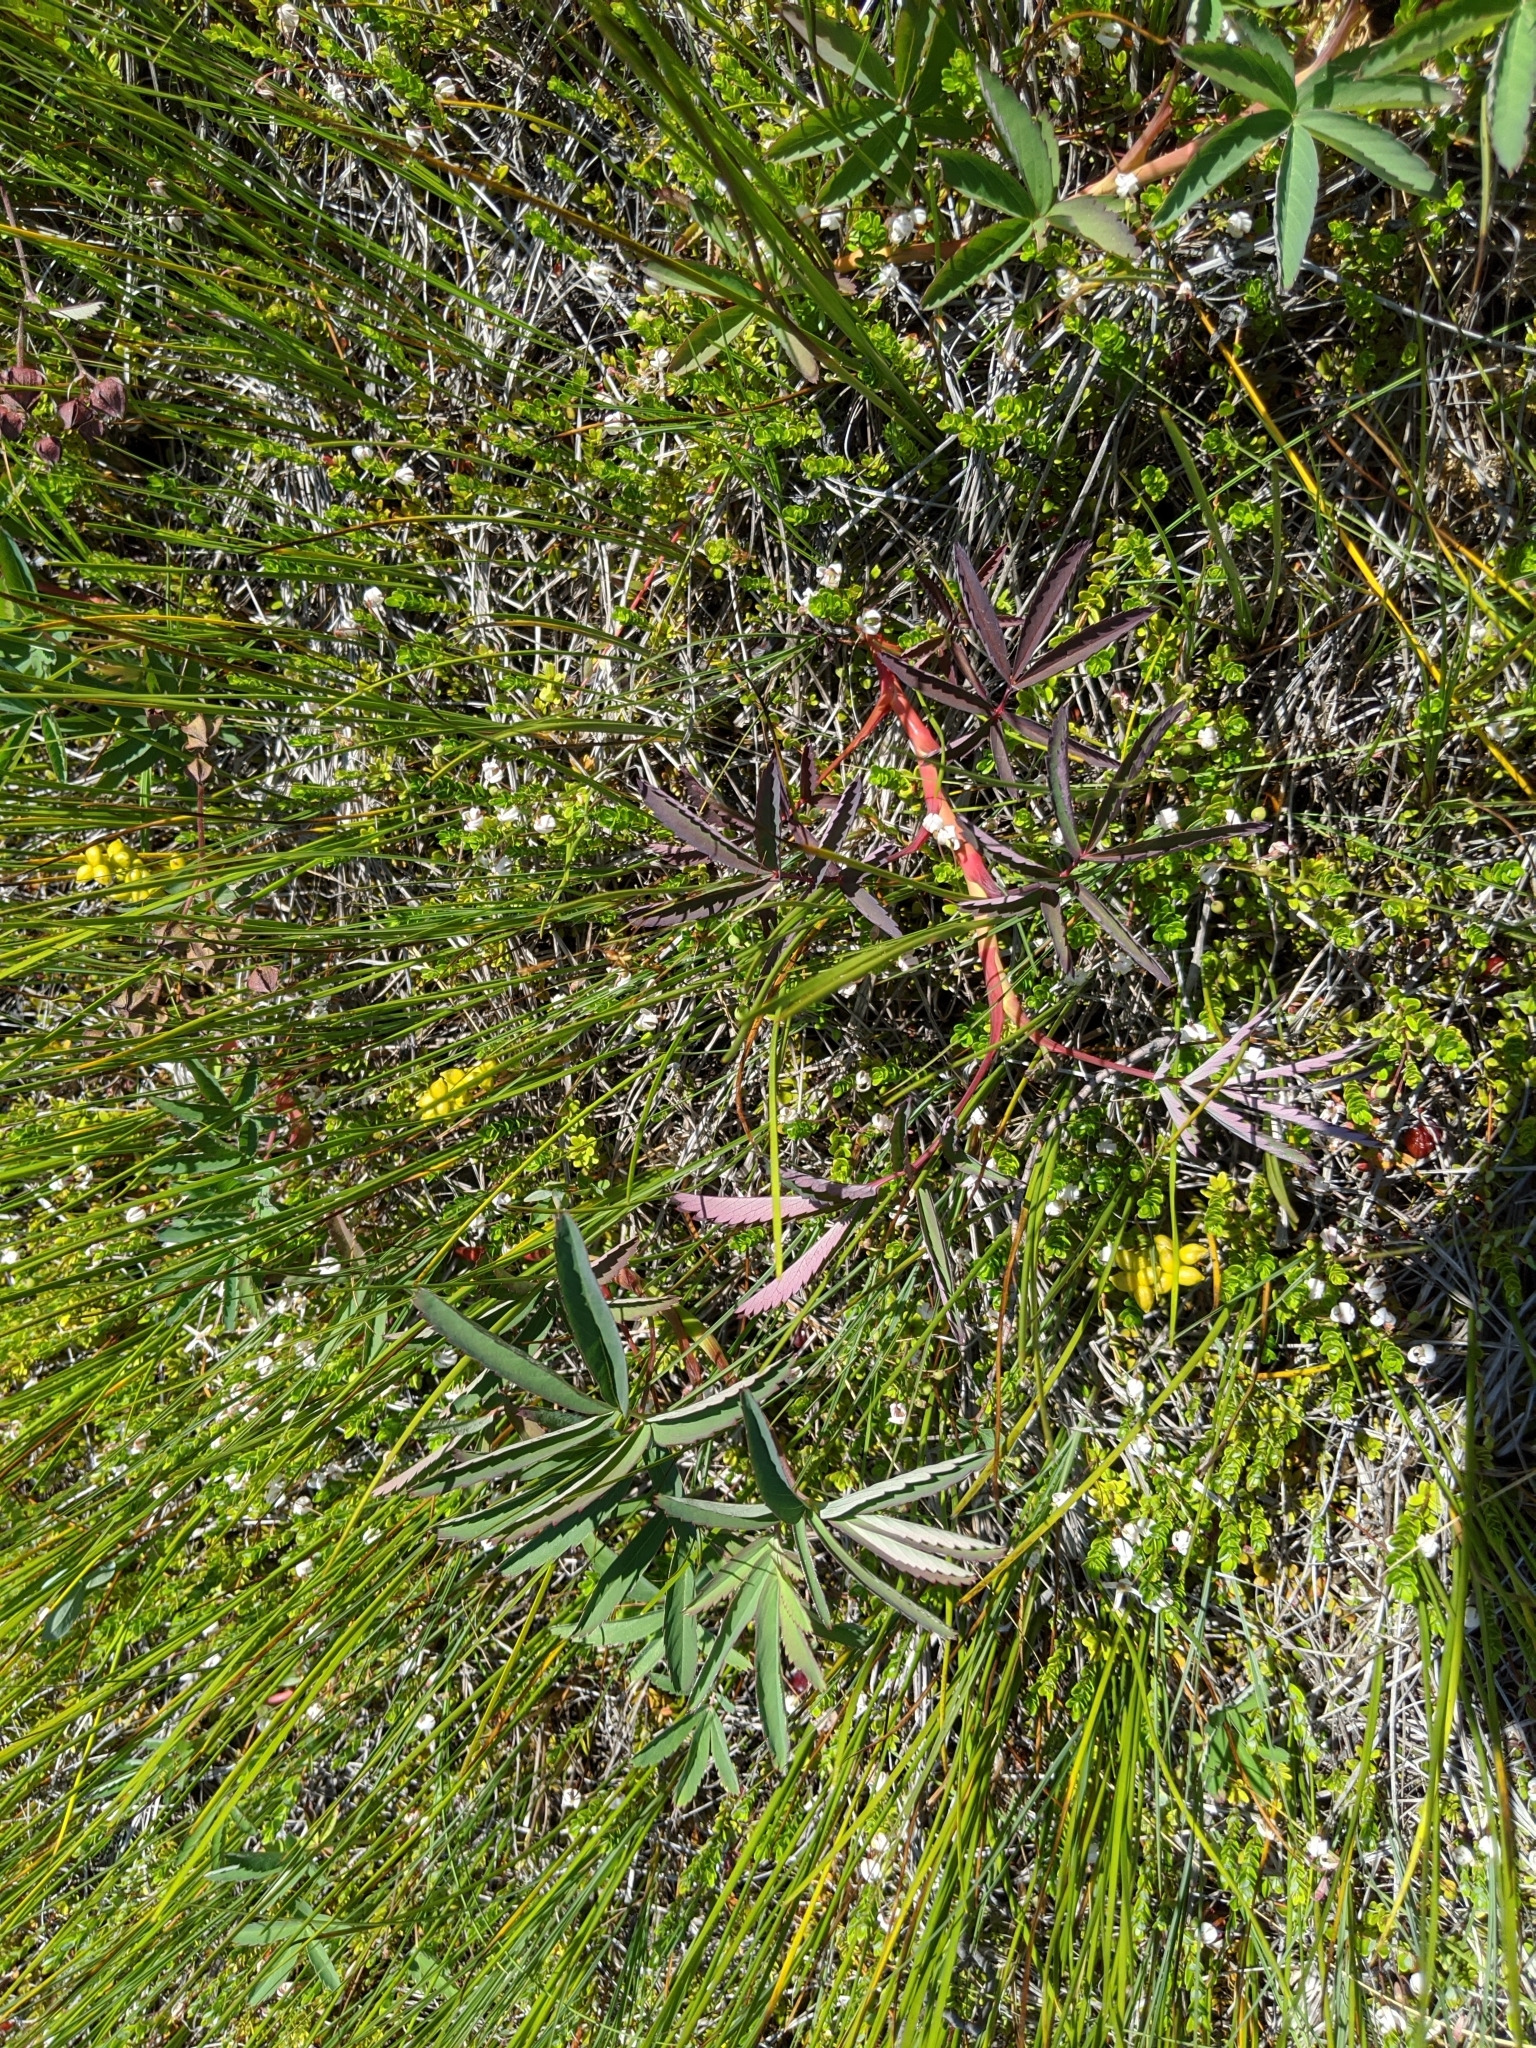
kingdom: Plantae
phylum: Tracheophyta
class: Liliopsida
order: Alismatales
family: Scheuchzeriaceae
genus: Scheuchzeria
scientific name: Scheuchzeria palustris
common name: Rannoch-rush
